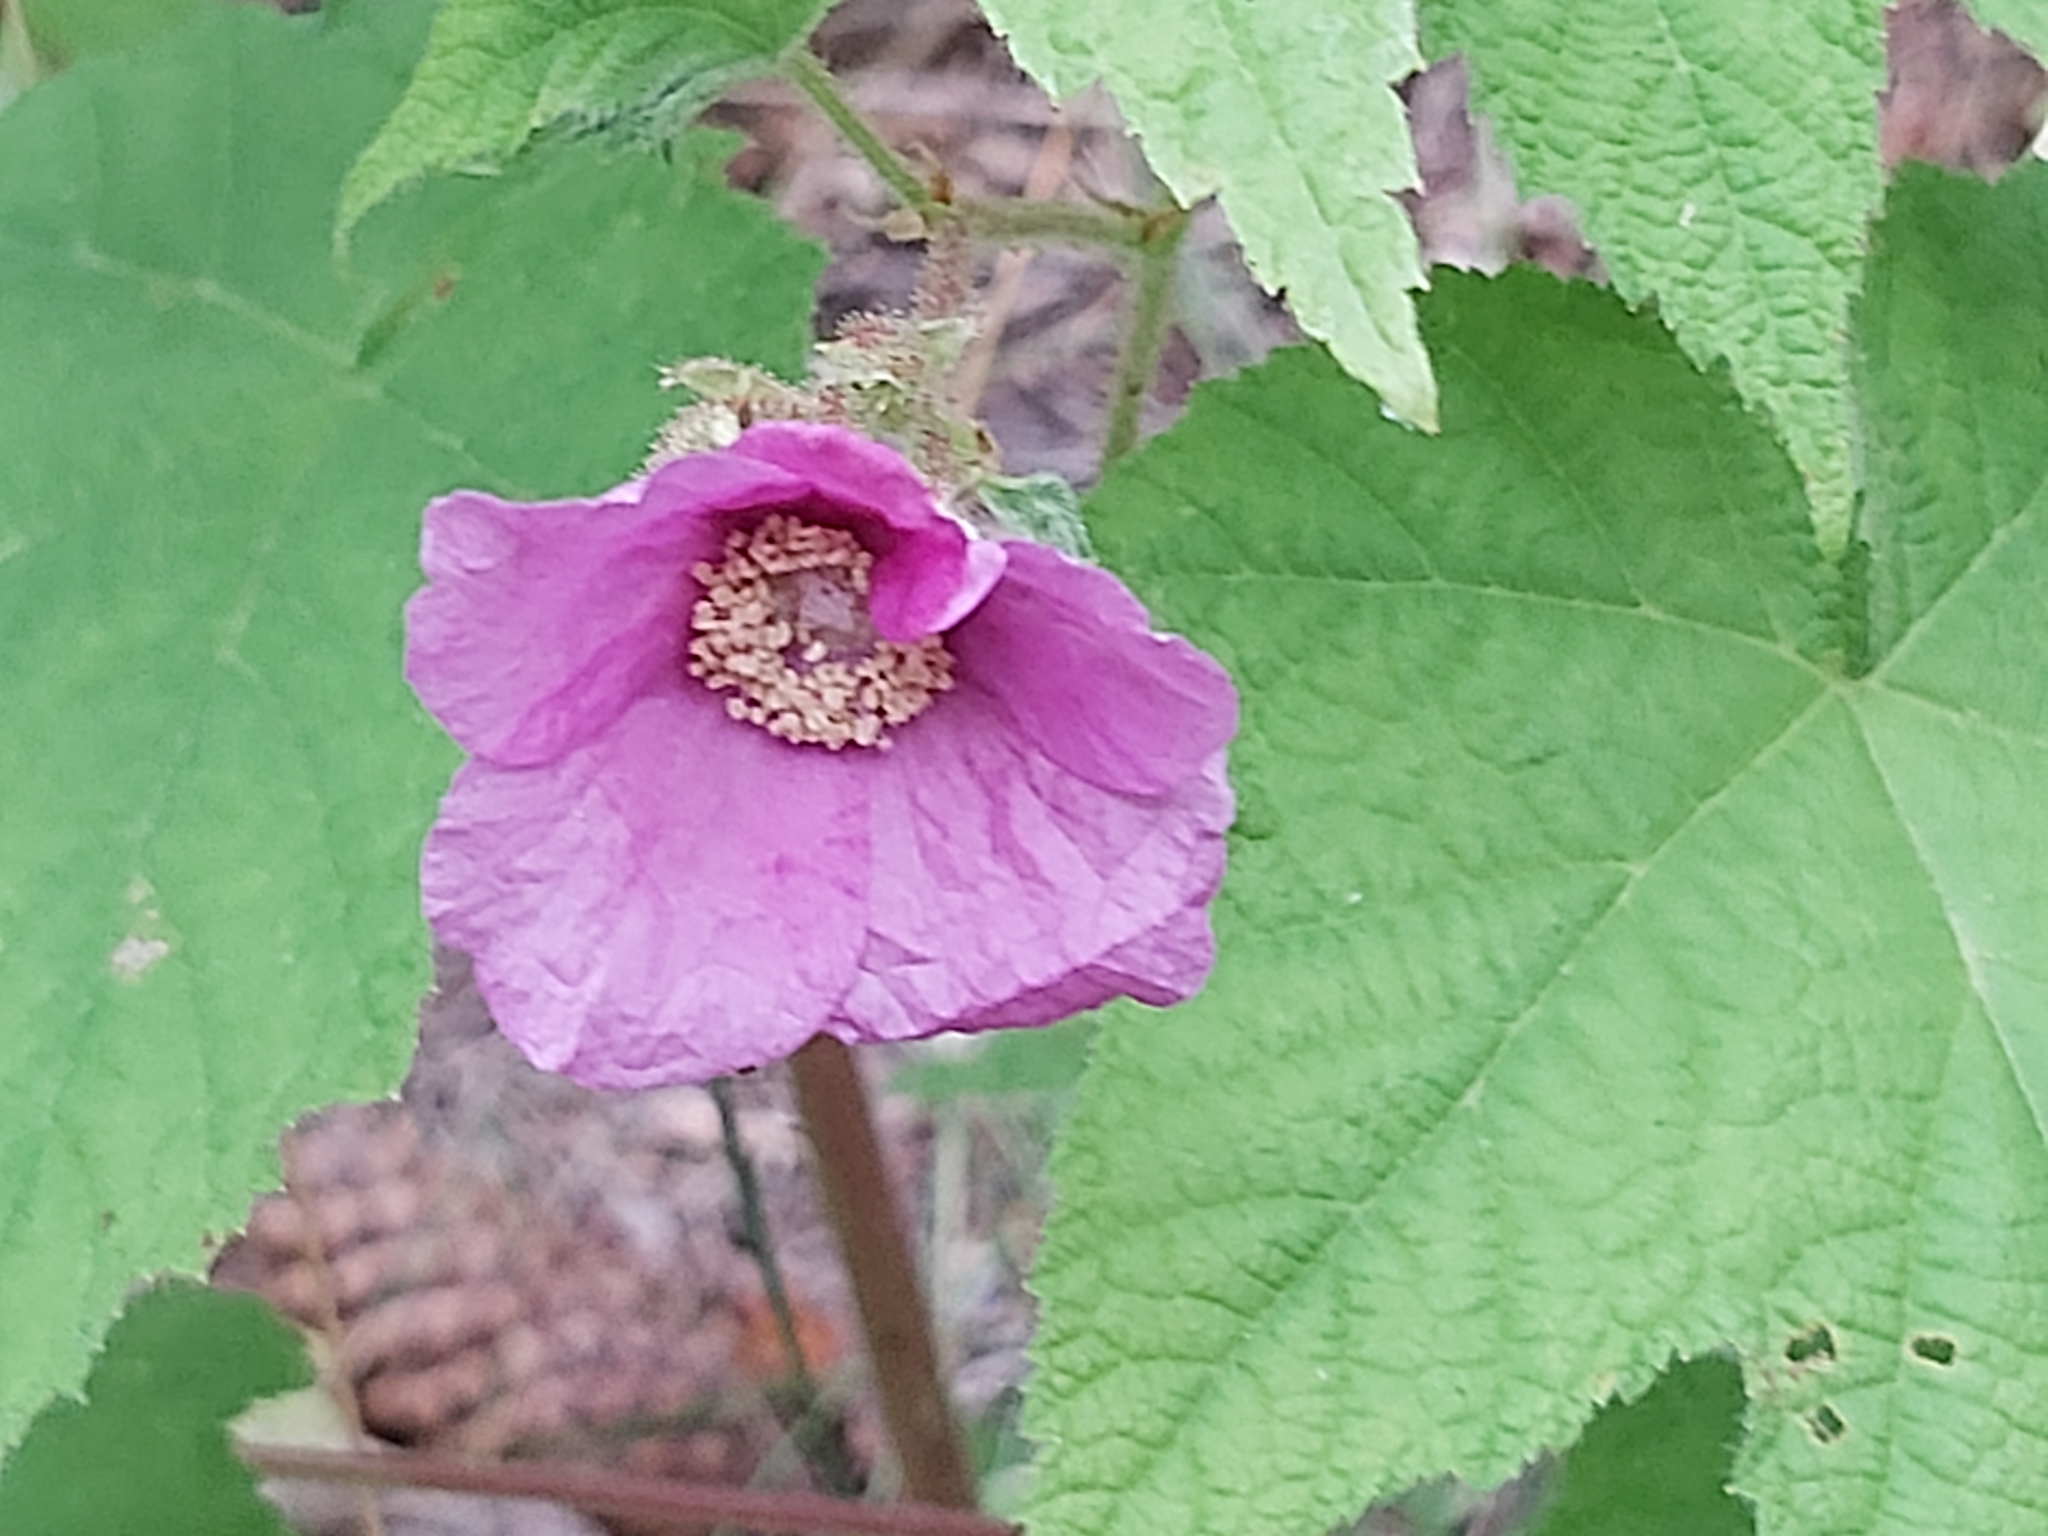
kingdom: Plantae
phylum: Tracheophyta
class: Magnoliopsida
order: Rosales
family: Rosaceae
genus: Rubus
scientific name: Rubus odoratus
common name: Purple-flowered raspberry
